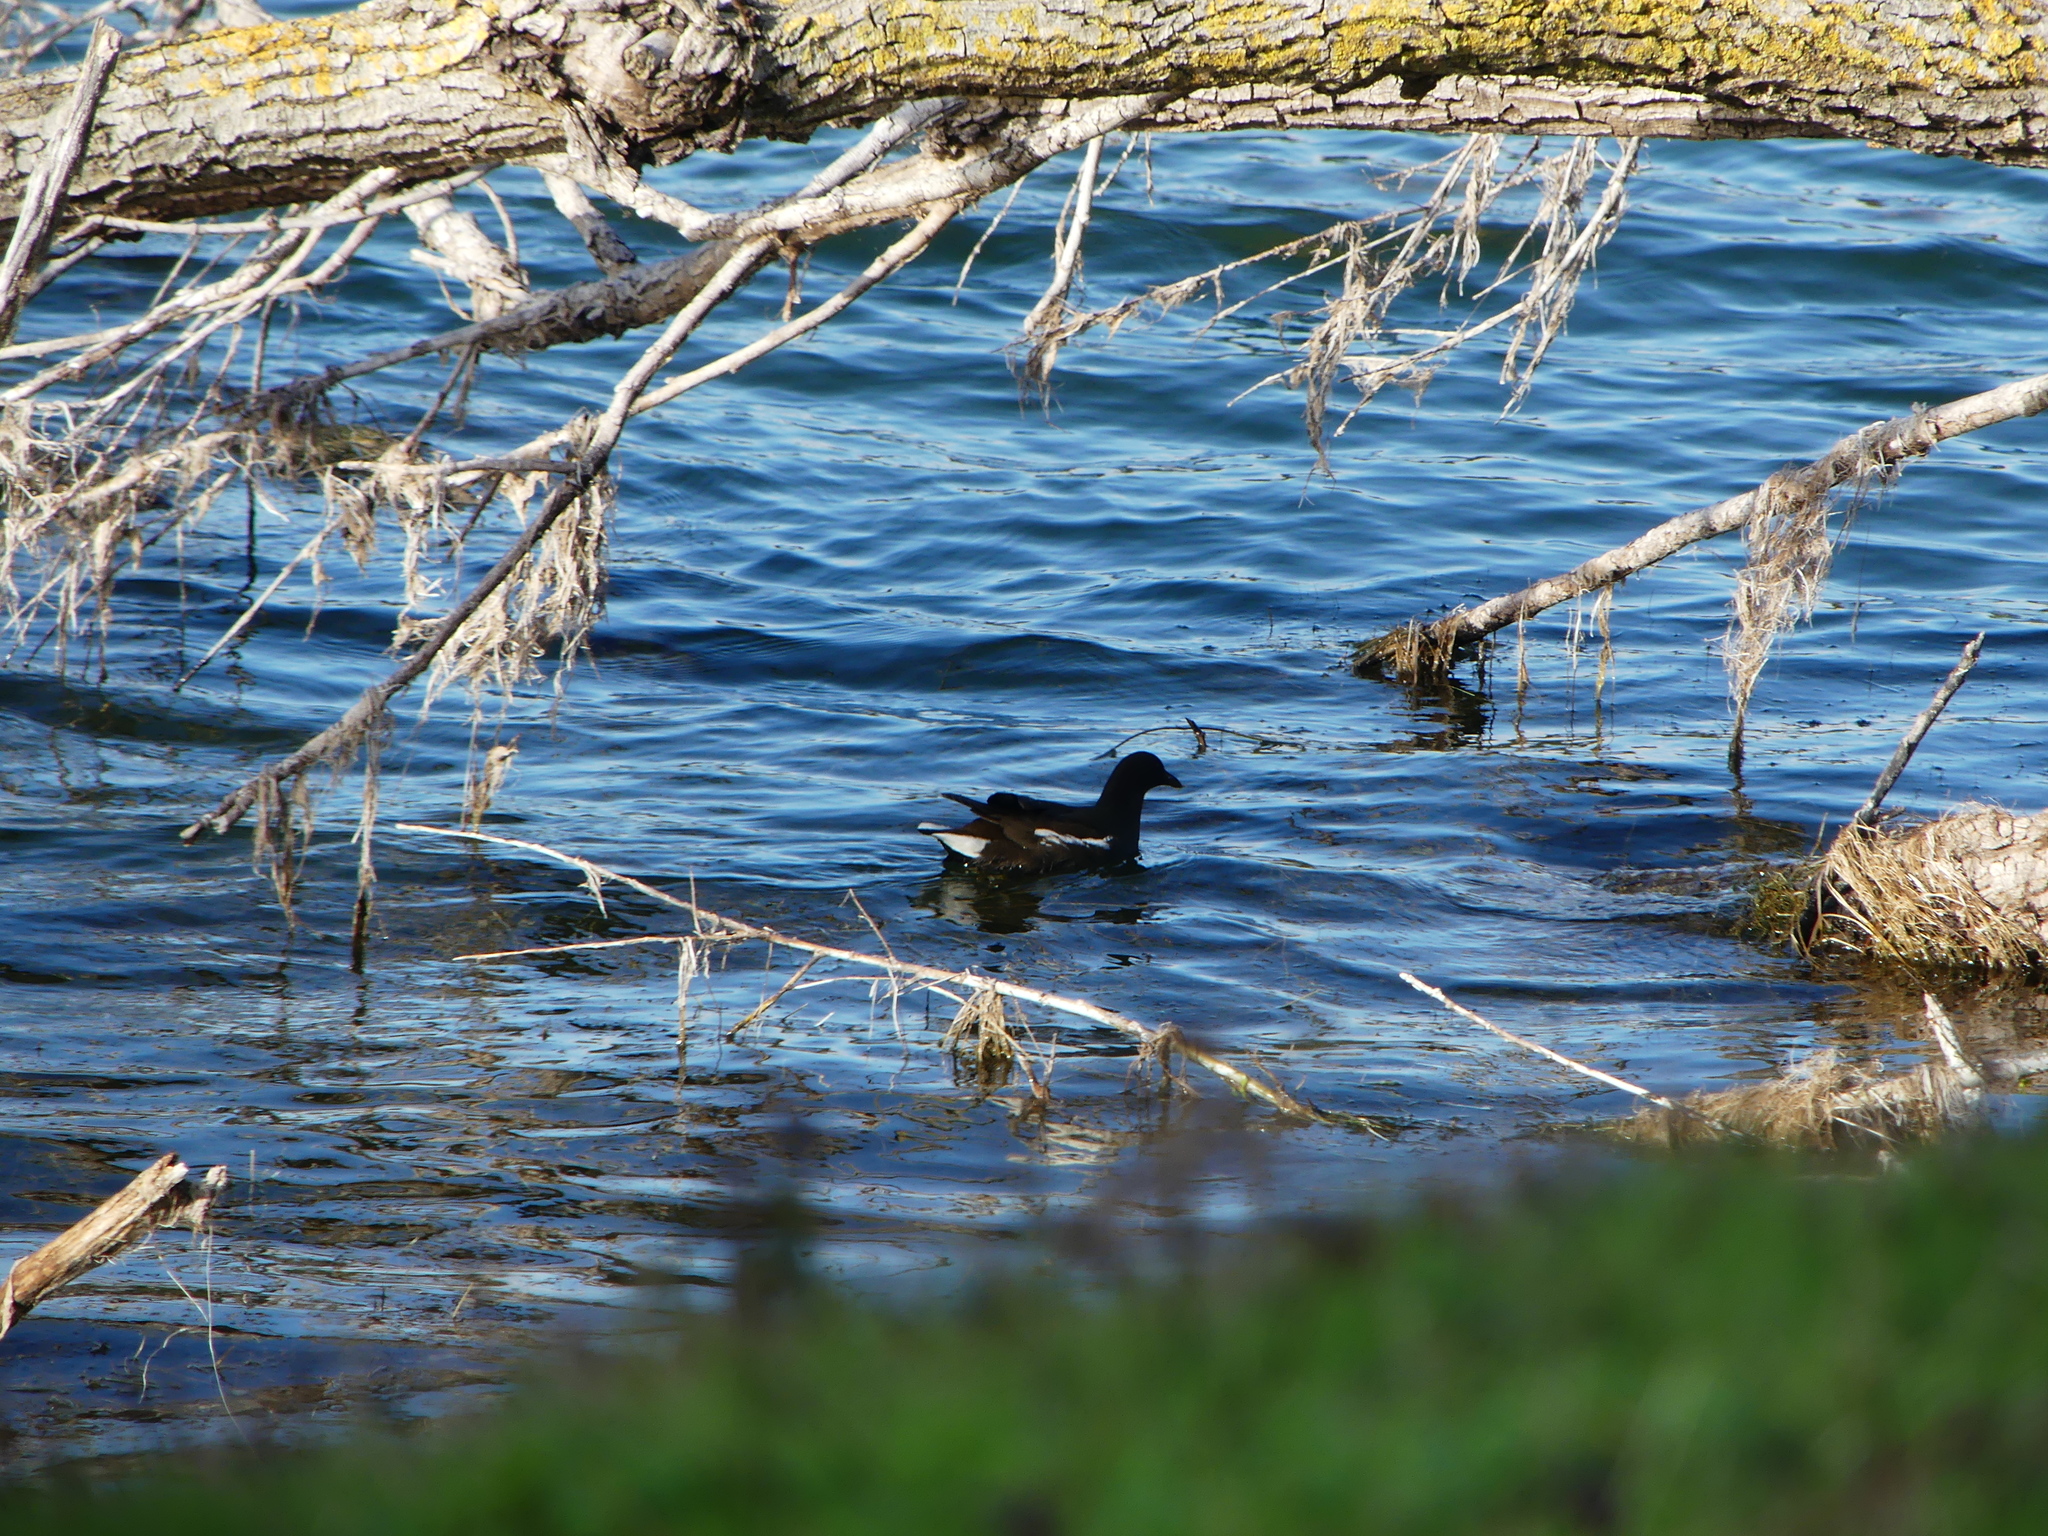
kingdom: Animalia
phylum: Chordata
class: Aves
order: Gruiformes
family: Rallidae
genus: Gallinula
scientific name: Gallinula chloropus
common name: Common moorhen
